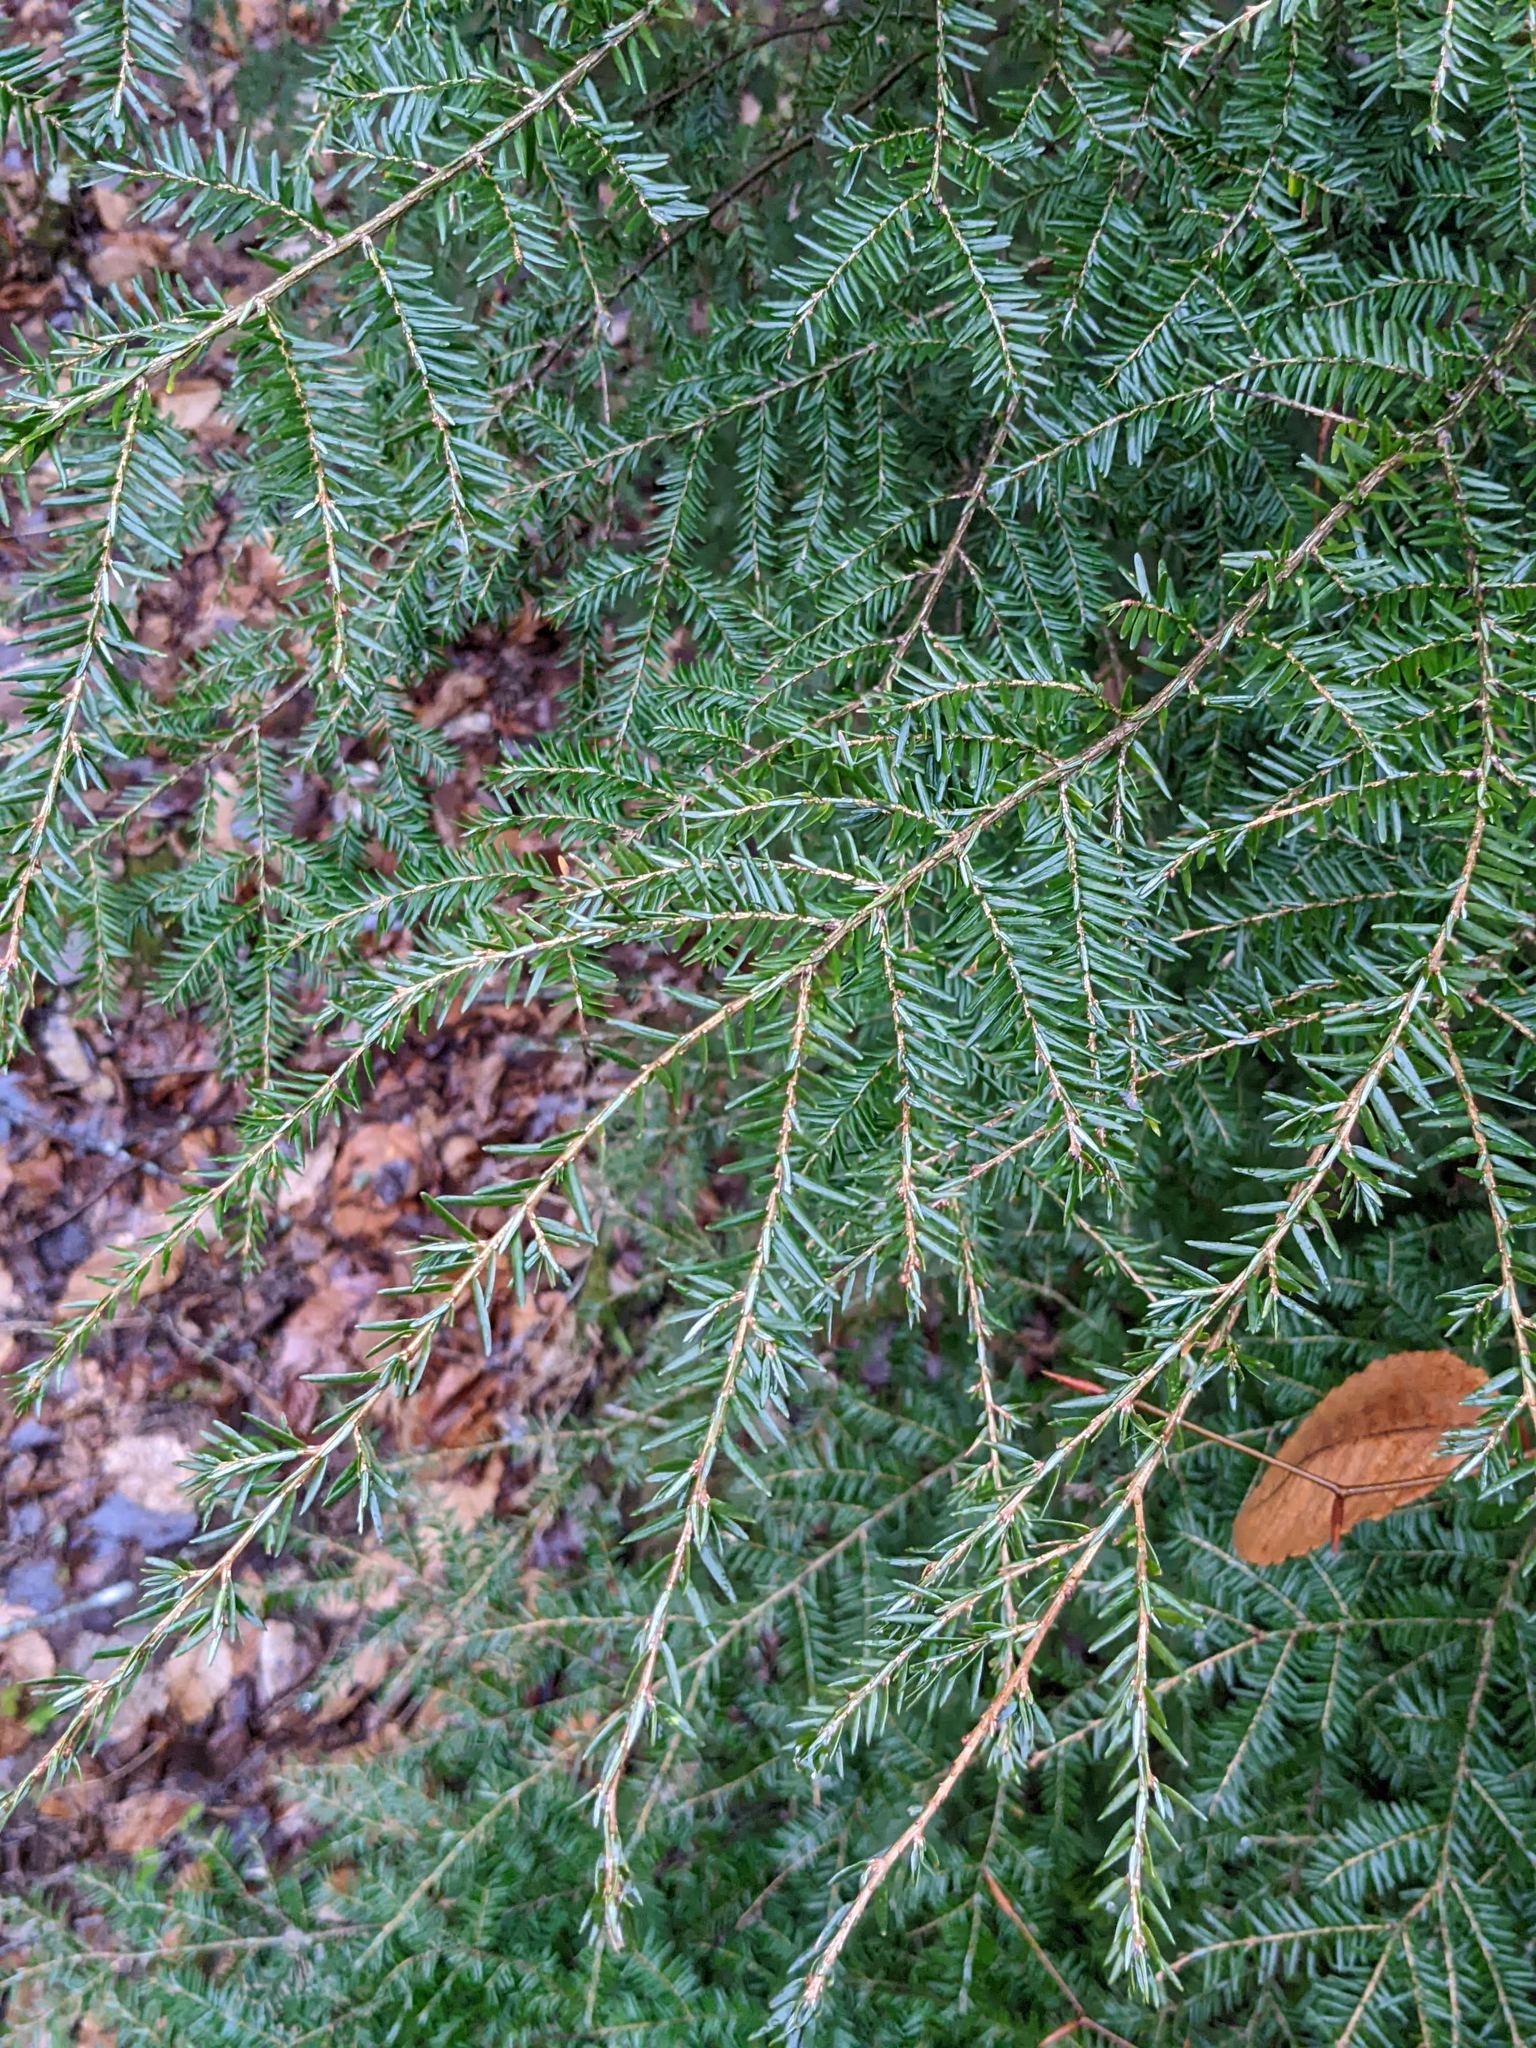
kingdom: Plantae
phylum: Tracheophyta
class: Pinopsida
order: Pinales
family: Pinaceae
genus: Tsuga
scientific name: Tsuga canadensis
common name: Eastern hemlock
